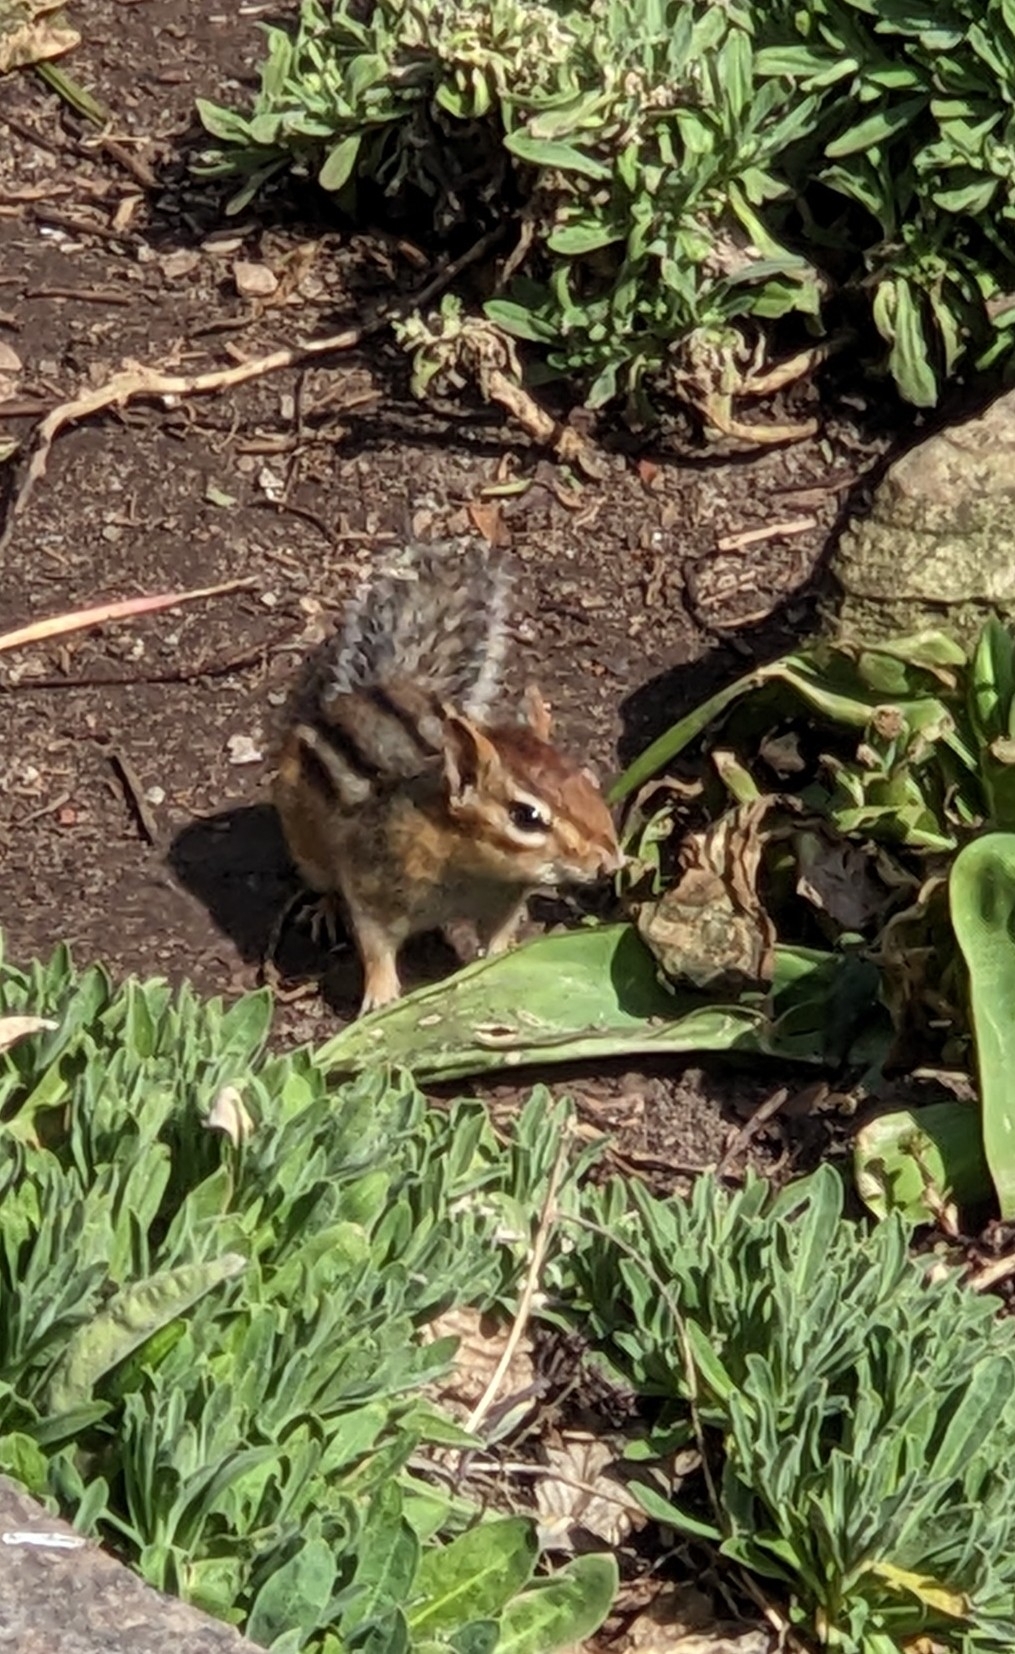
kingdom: Animalia
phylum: Chordata
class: Mammalia
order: Rodentia
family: Sciuridae
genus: Tamias
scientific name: Tamias striatus
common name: Eastern chipmunk
